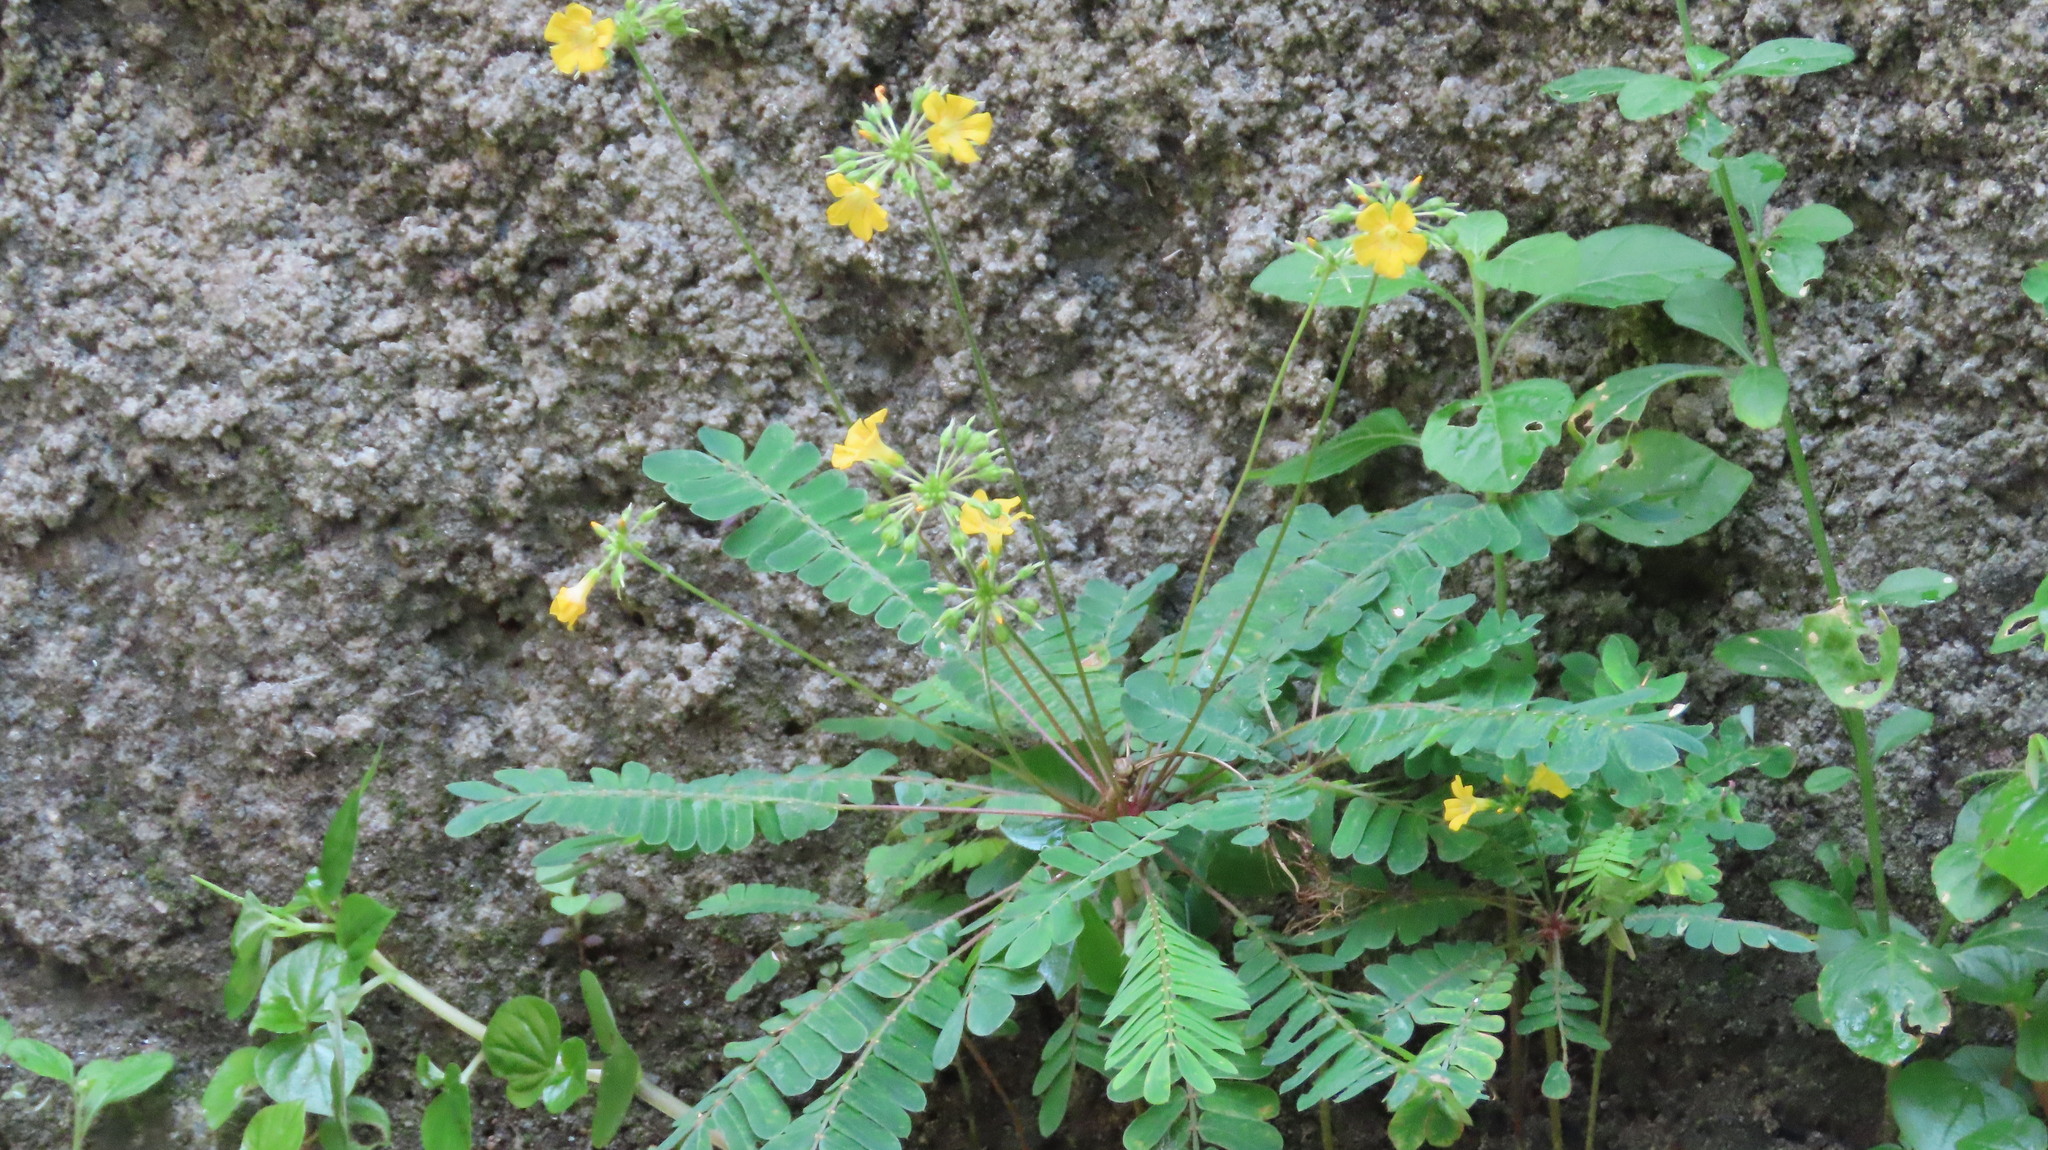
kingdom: Plantae
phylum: Tracheophyta
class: Magnoliopsida
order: Oxalidales
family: Oxalidaceae
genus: Biophytum
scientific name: Biophytum sensitivum
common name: Lifeplant
